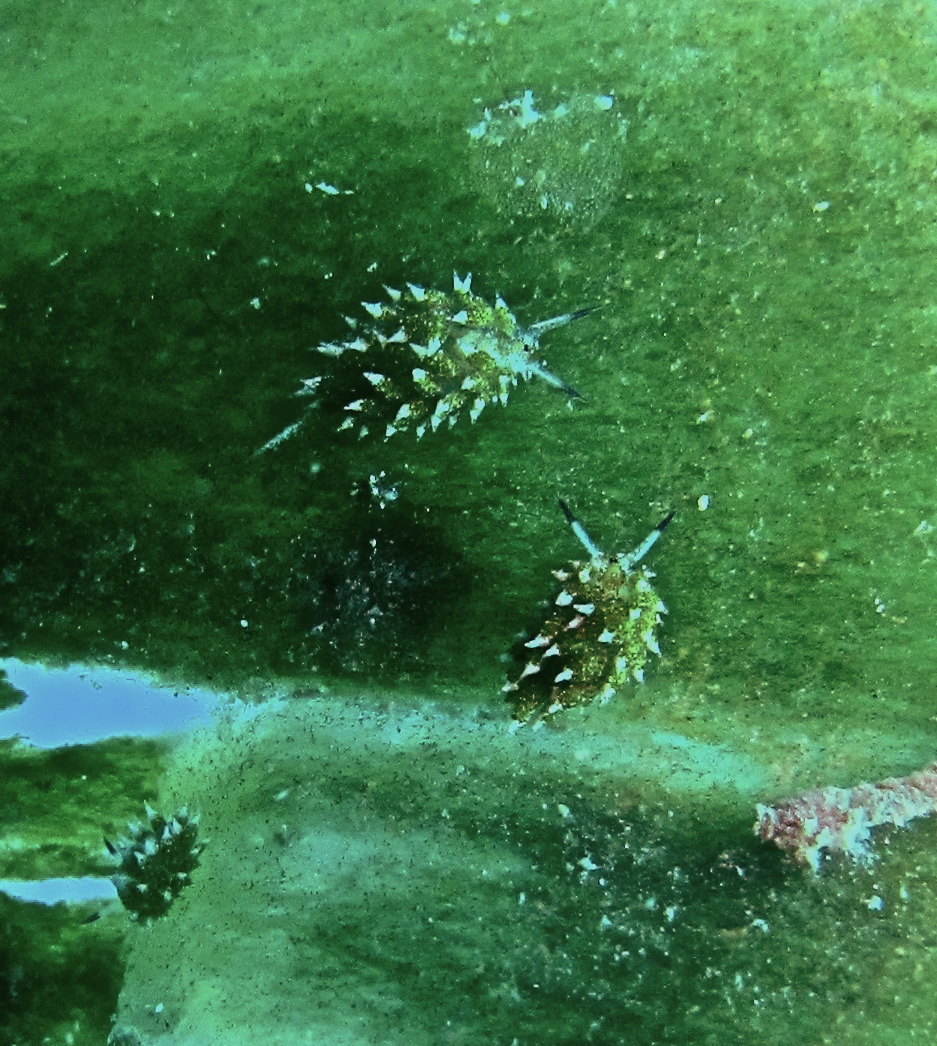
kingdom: Animalia
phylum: Mollusca
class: Gastropoda
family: Costasiellidae
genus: Costasiella
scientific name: Costasiella kuroshimae
